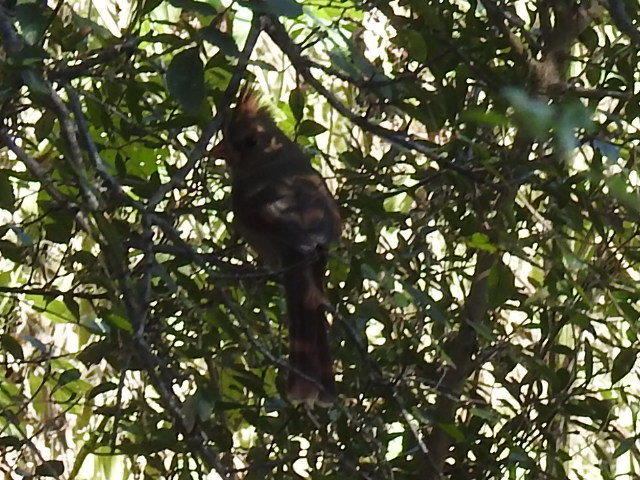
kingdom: Animalia
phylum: Chordata
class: Aves
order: Passeriformes
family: Cardinalidae
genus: Cardinalis
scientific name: Cardinalis cardinalis
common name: Northern cardinal
